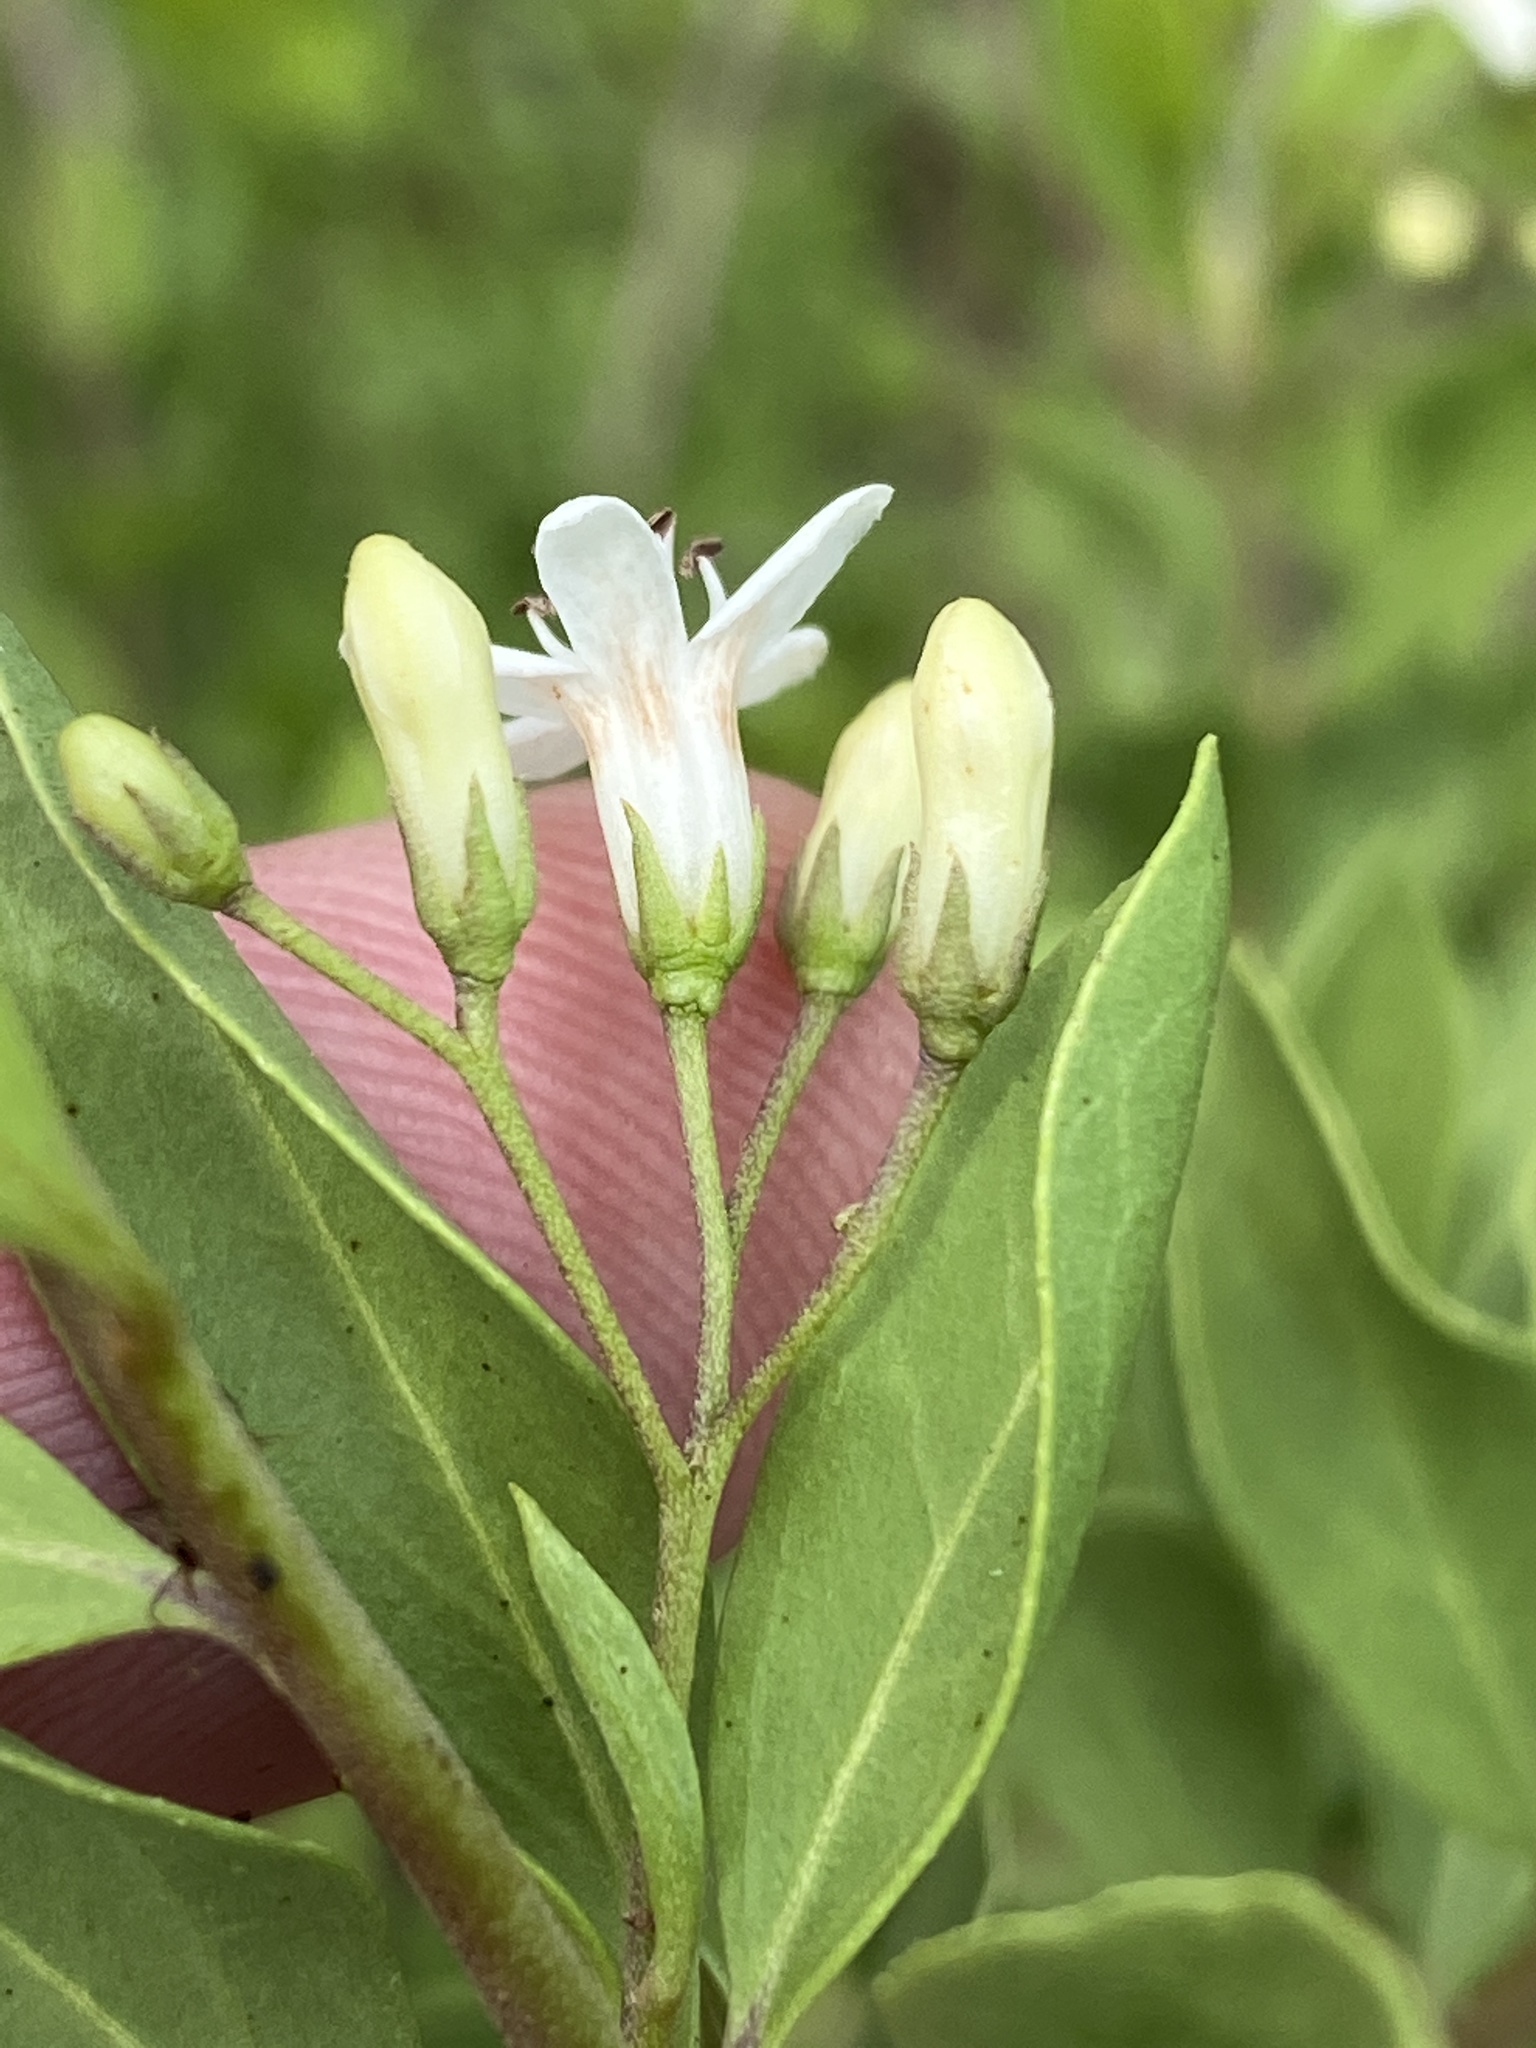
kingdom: Plantae
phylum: Tracheophyta
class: Magnoliopsida
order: Boraginales
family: Ehretiaceae
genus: Ehretia
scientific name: Ehretia alba
